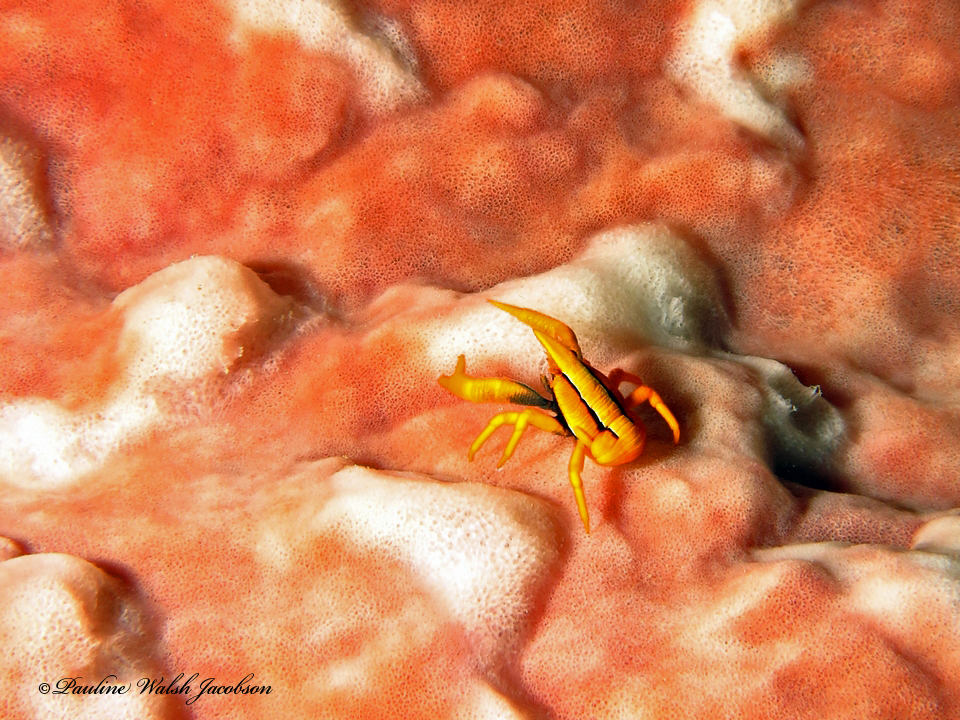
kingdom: Animalia
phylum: Arthropoda
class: Malacostraca
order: Decapoda
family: Galatheidae
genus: Allogalathea
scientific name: Allogalathea babai
